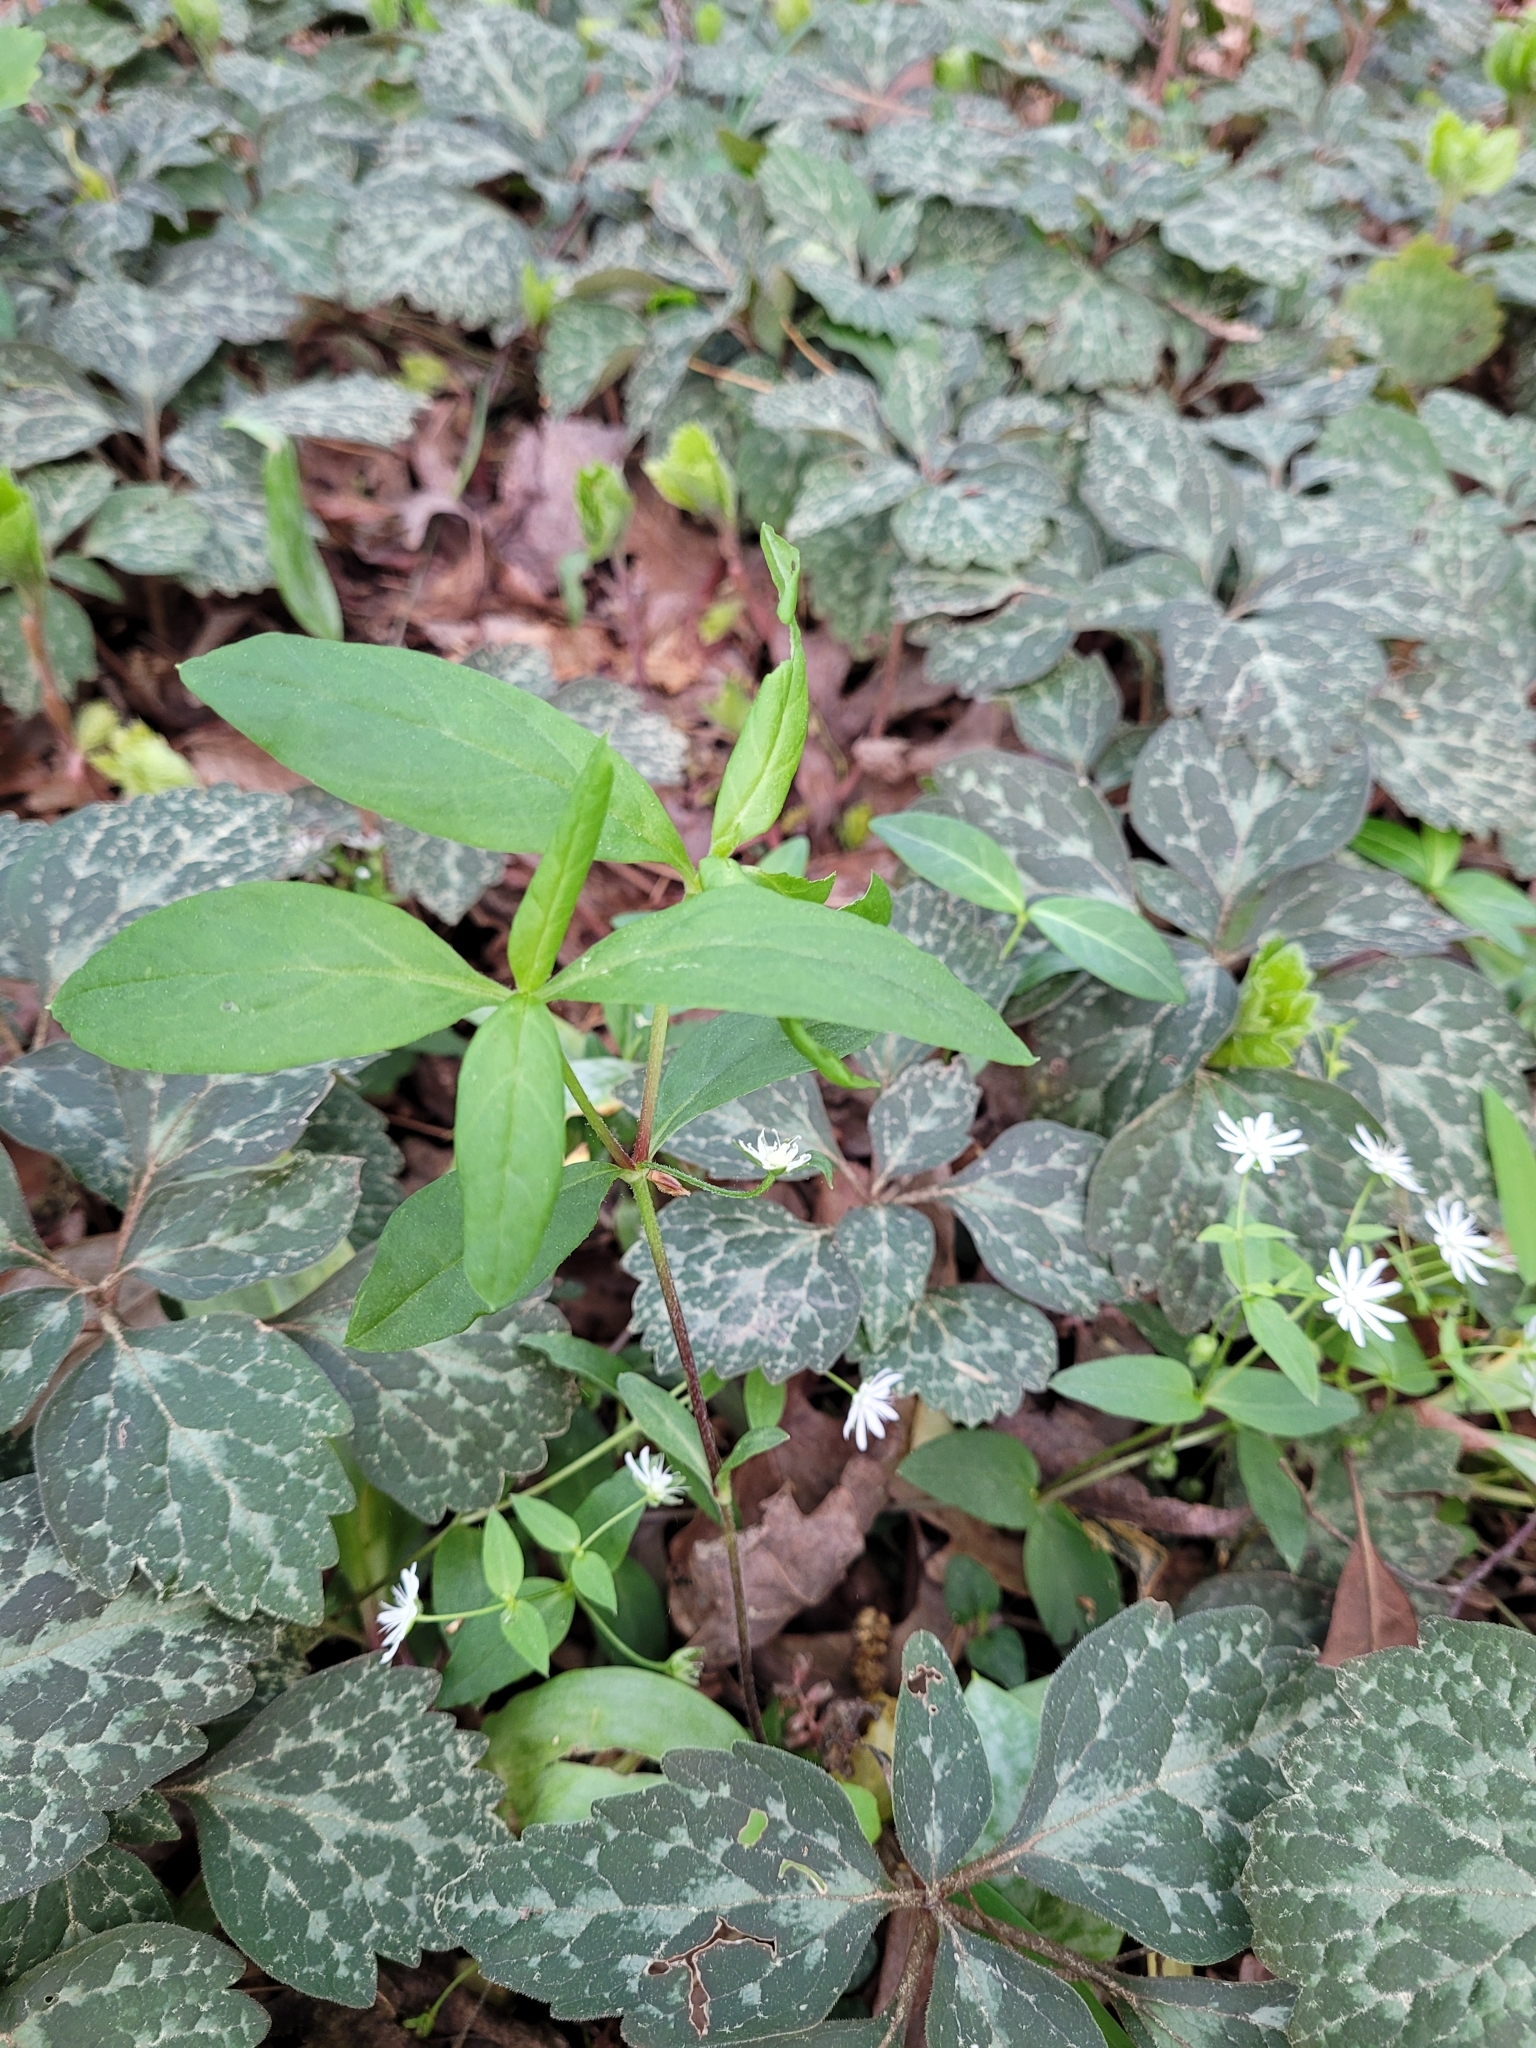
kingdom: Plantae
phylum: Tracheophyta
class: Magnoliopsida
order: Buxales
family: Buxaceae
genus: Pachysandra
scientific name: Pachysandra procumbens
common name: Mountain-spurge
